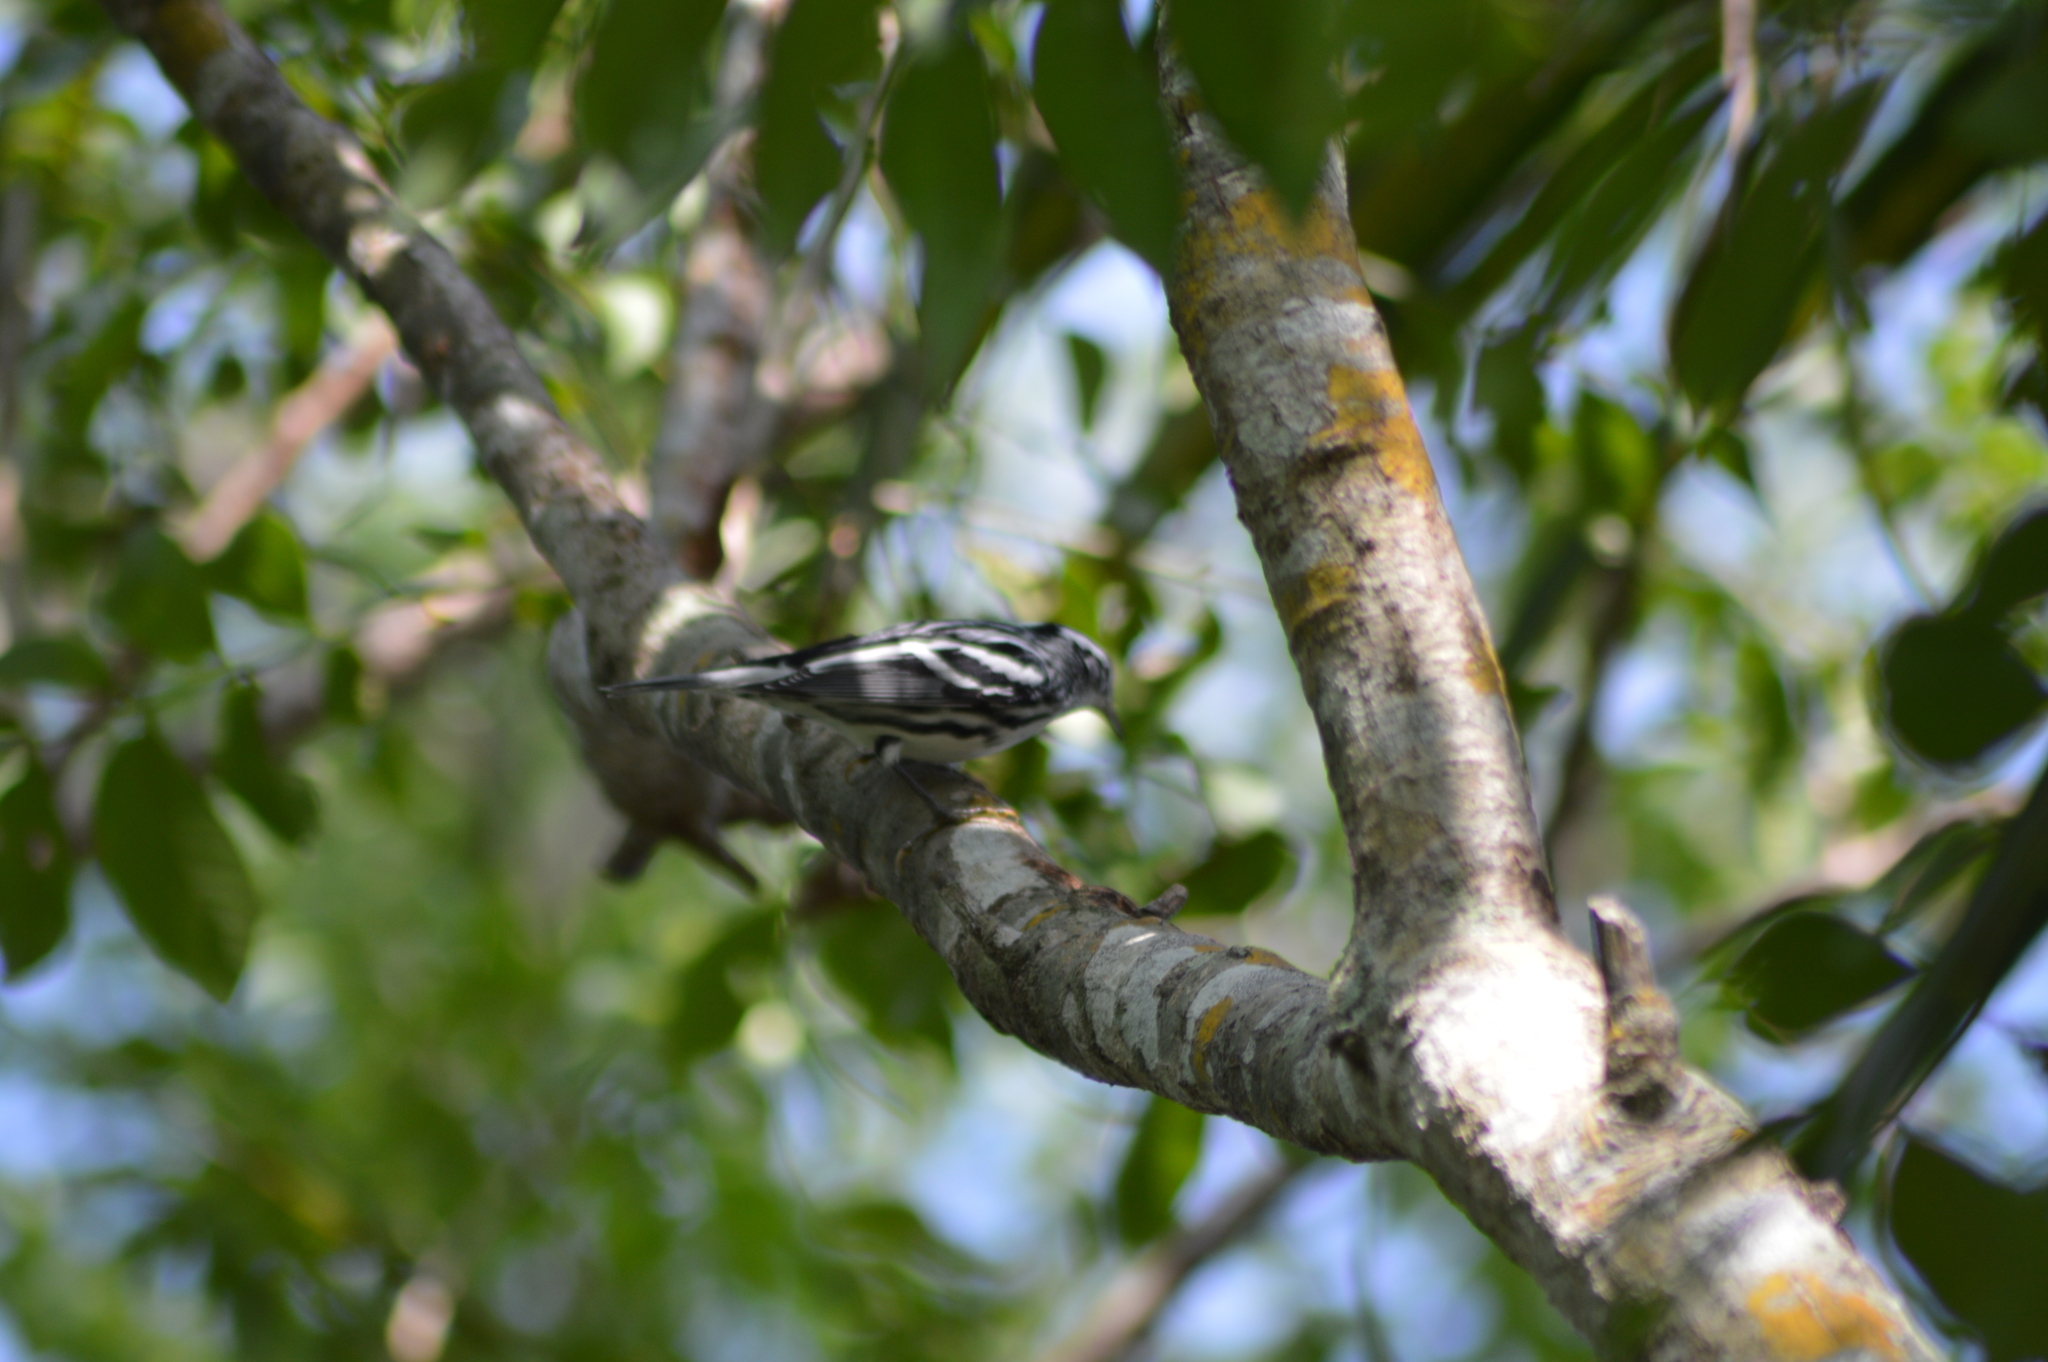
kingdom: Animalia
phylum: Chordata
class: Aves
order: Passeriformes
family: Parulidae
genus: Mniotilta
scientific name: Mniotilta varia
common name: Black-and-white warbler
